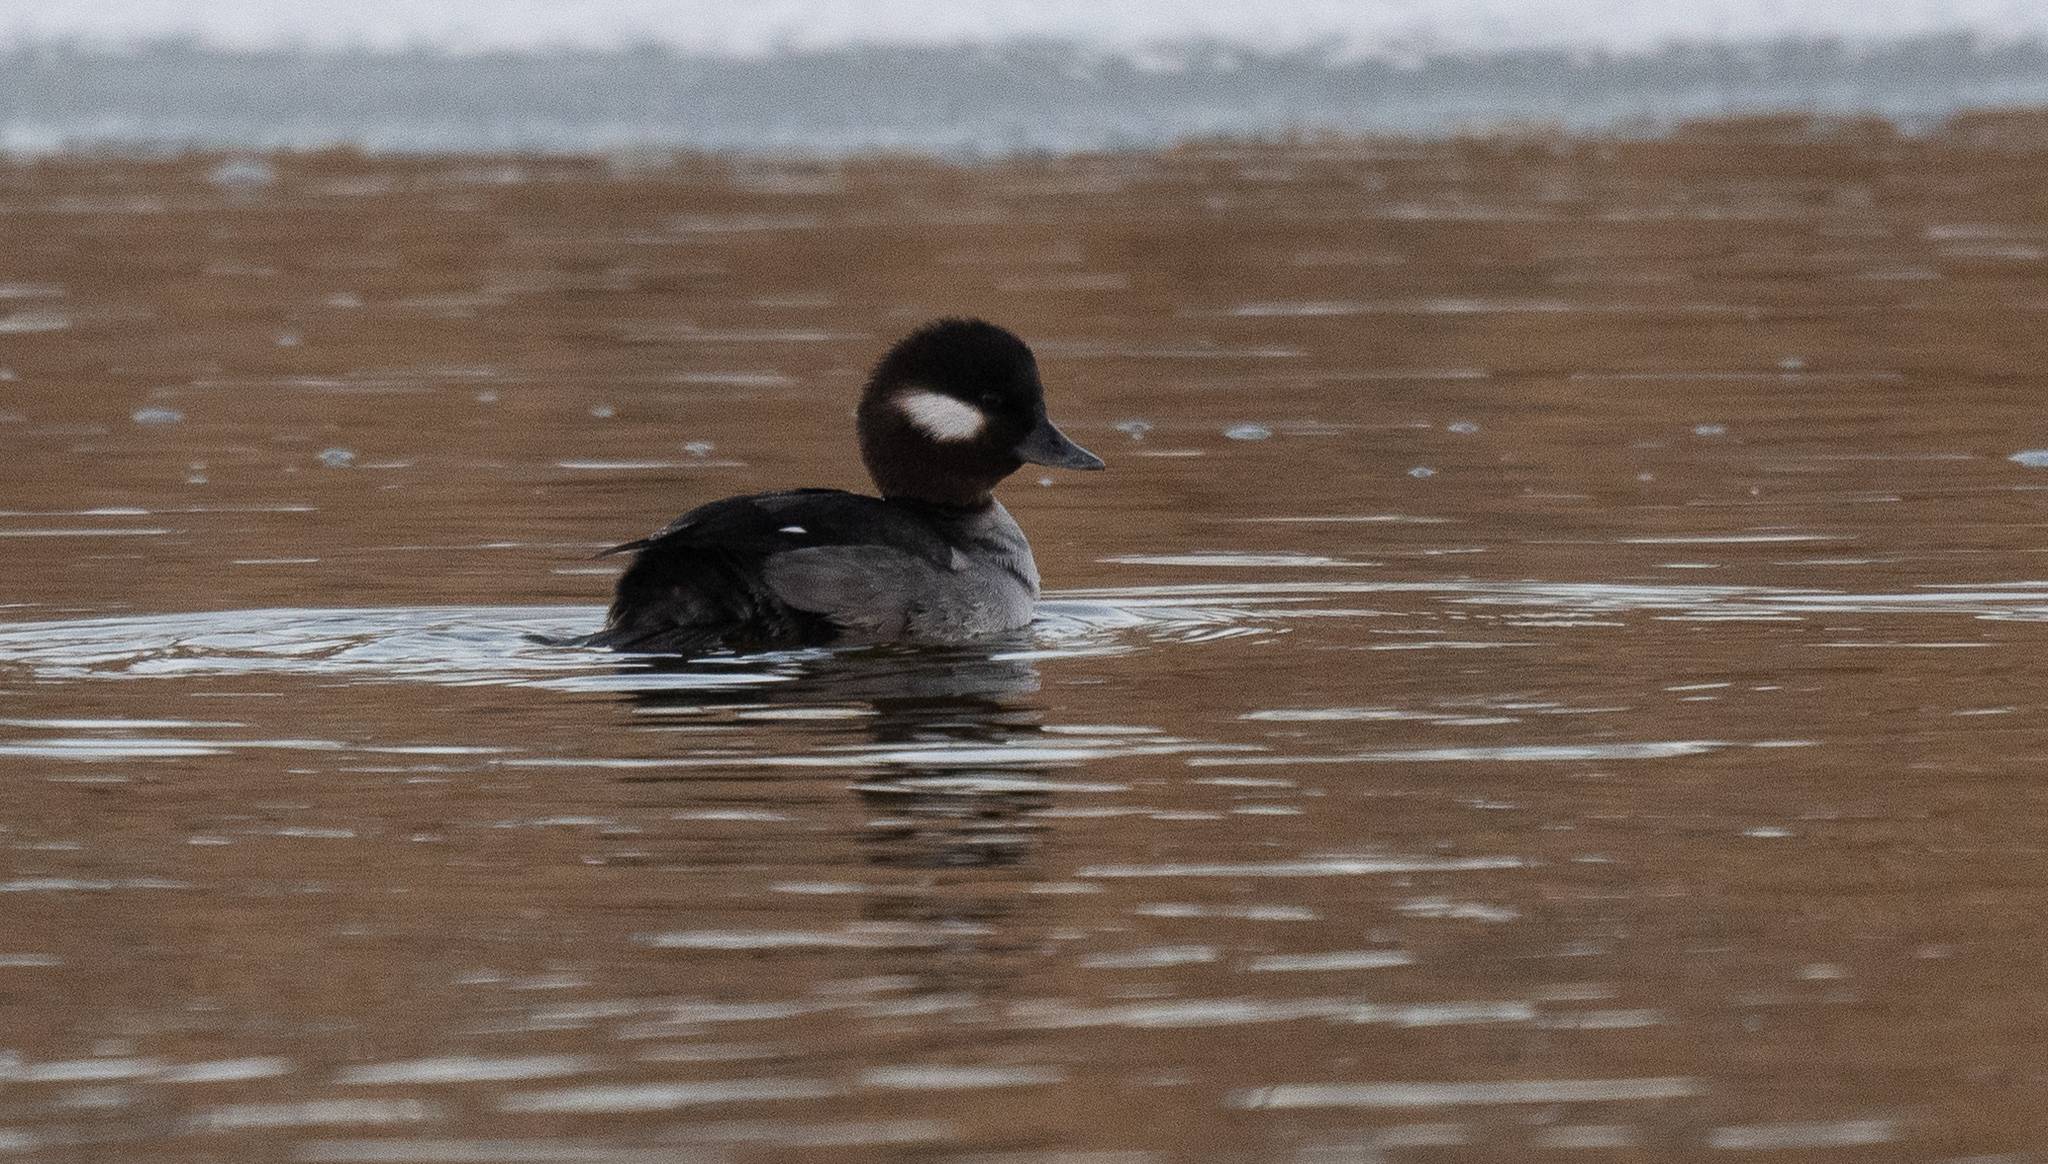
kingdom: Animalia
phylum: Chordata
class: Aves
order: Anseriformes
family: Anatidae
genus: Bucephala
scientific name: Bucephala albeola
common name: Bufflehead
